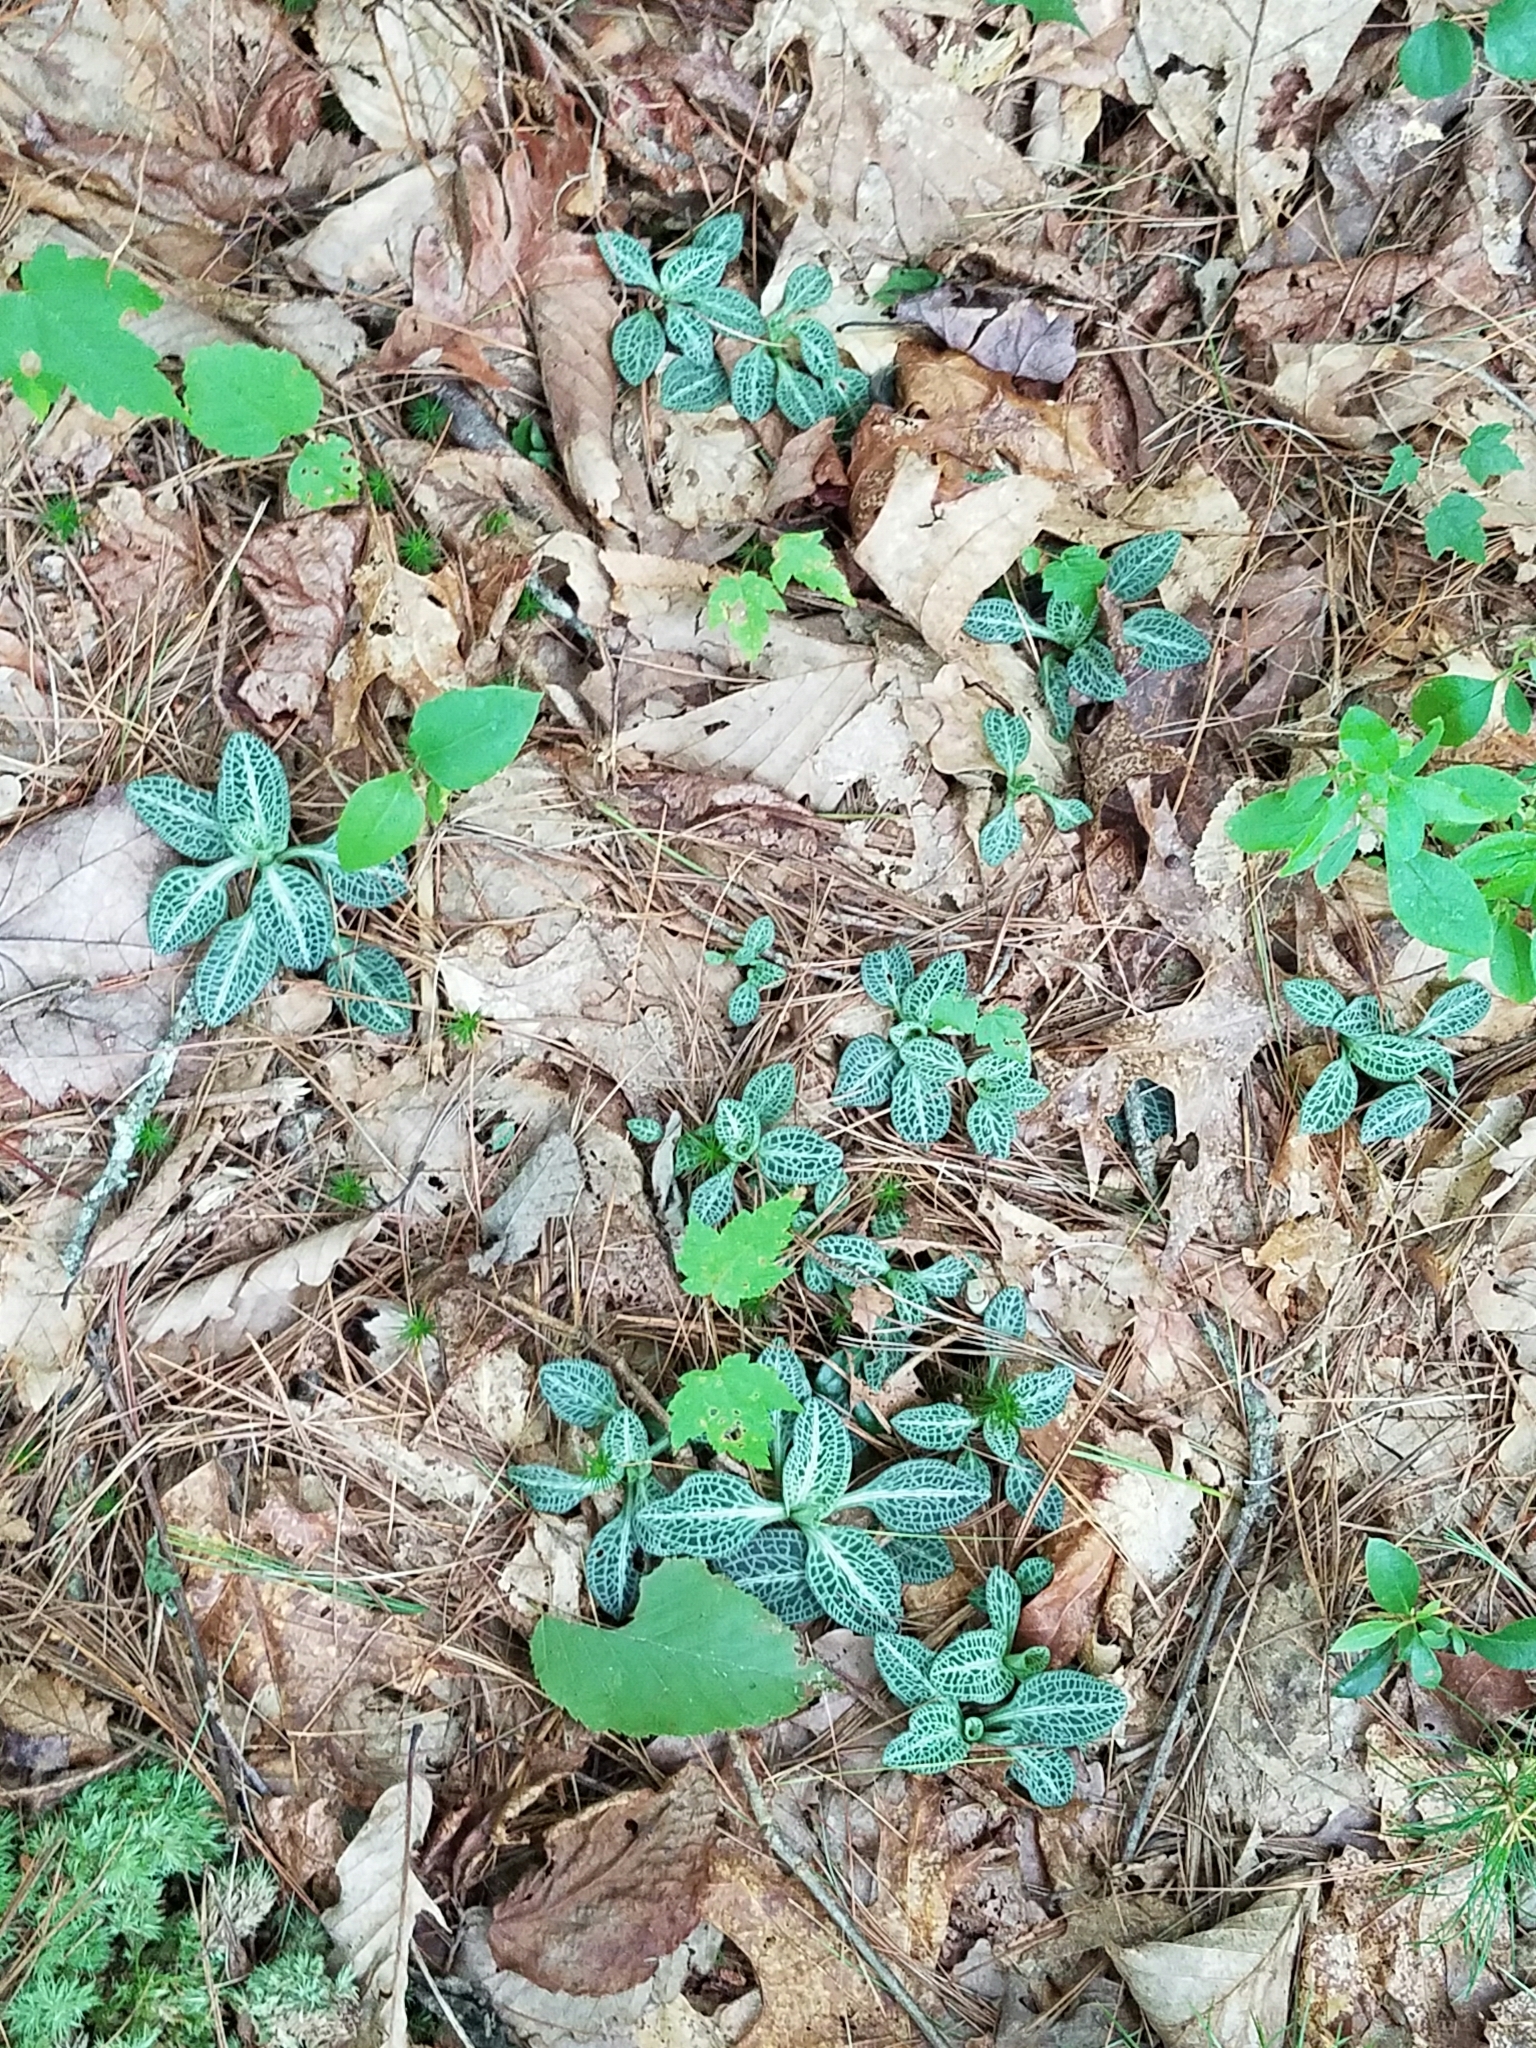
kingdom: Plantae
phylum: Tracheophyta
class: Liliopsida
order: Asparagales
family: Orchidaceae
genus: Goodyera
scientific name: Goodyera pubescens
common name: Downy rattlesnake-plantain
